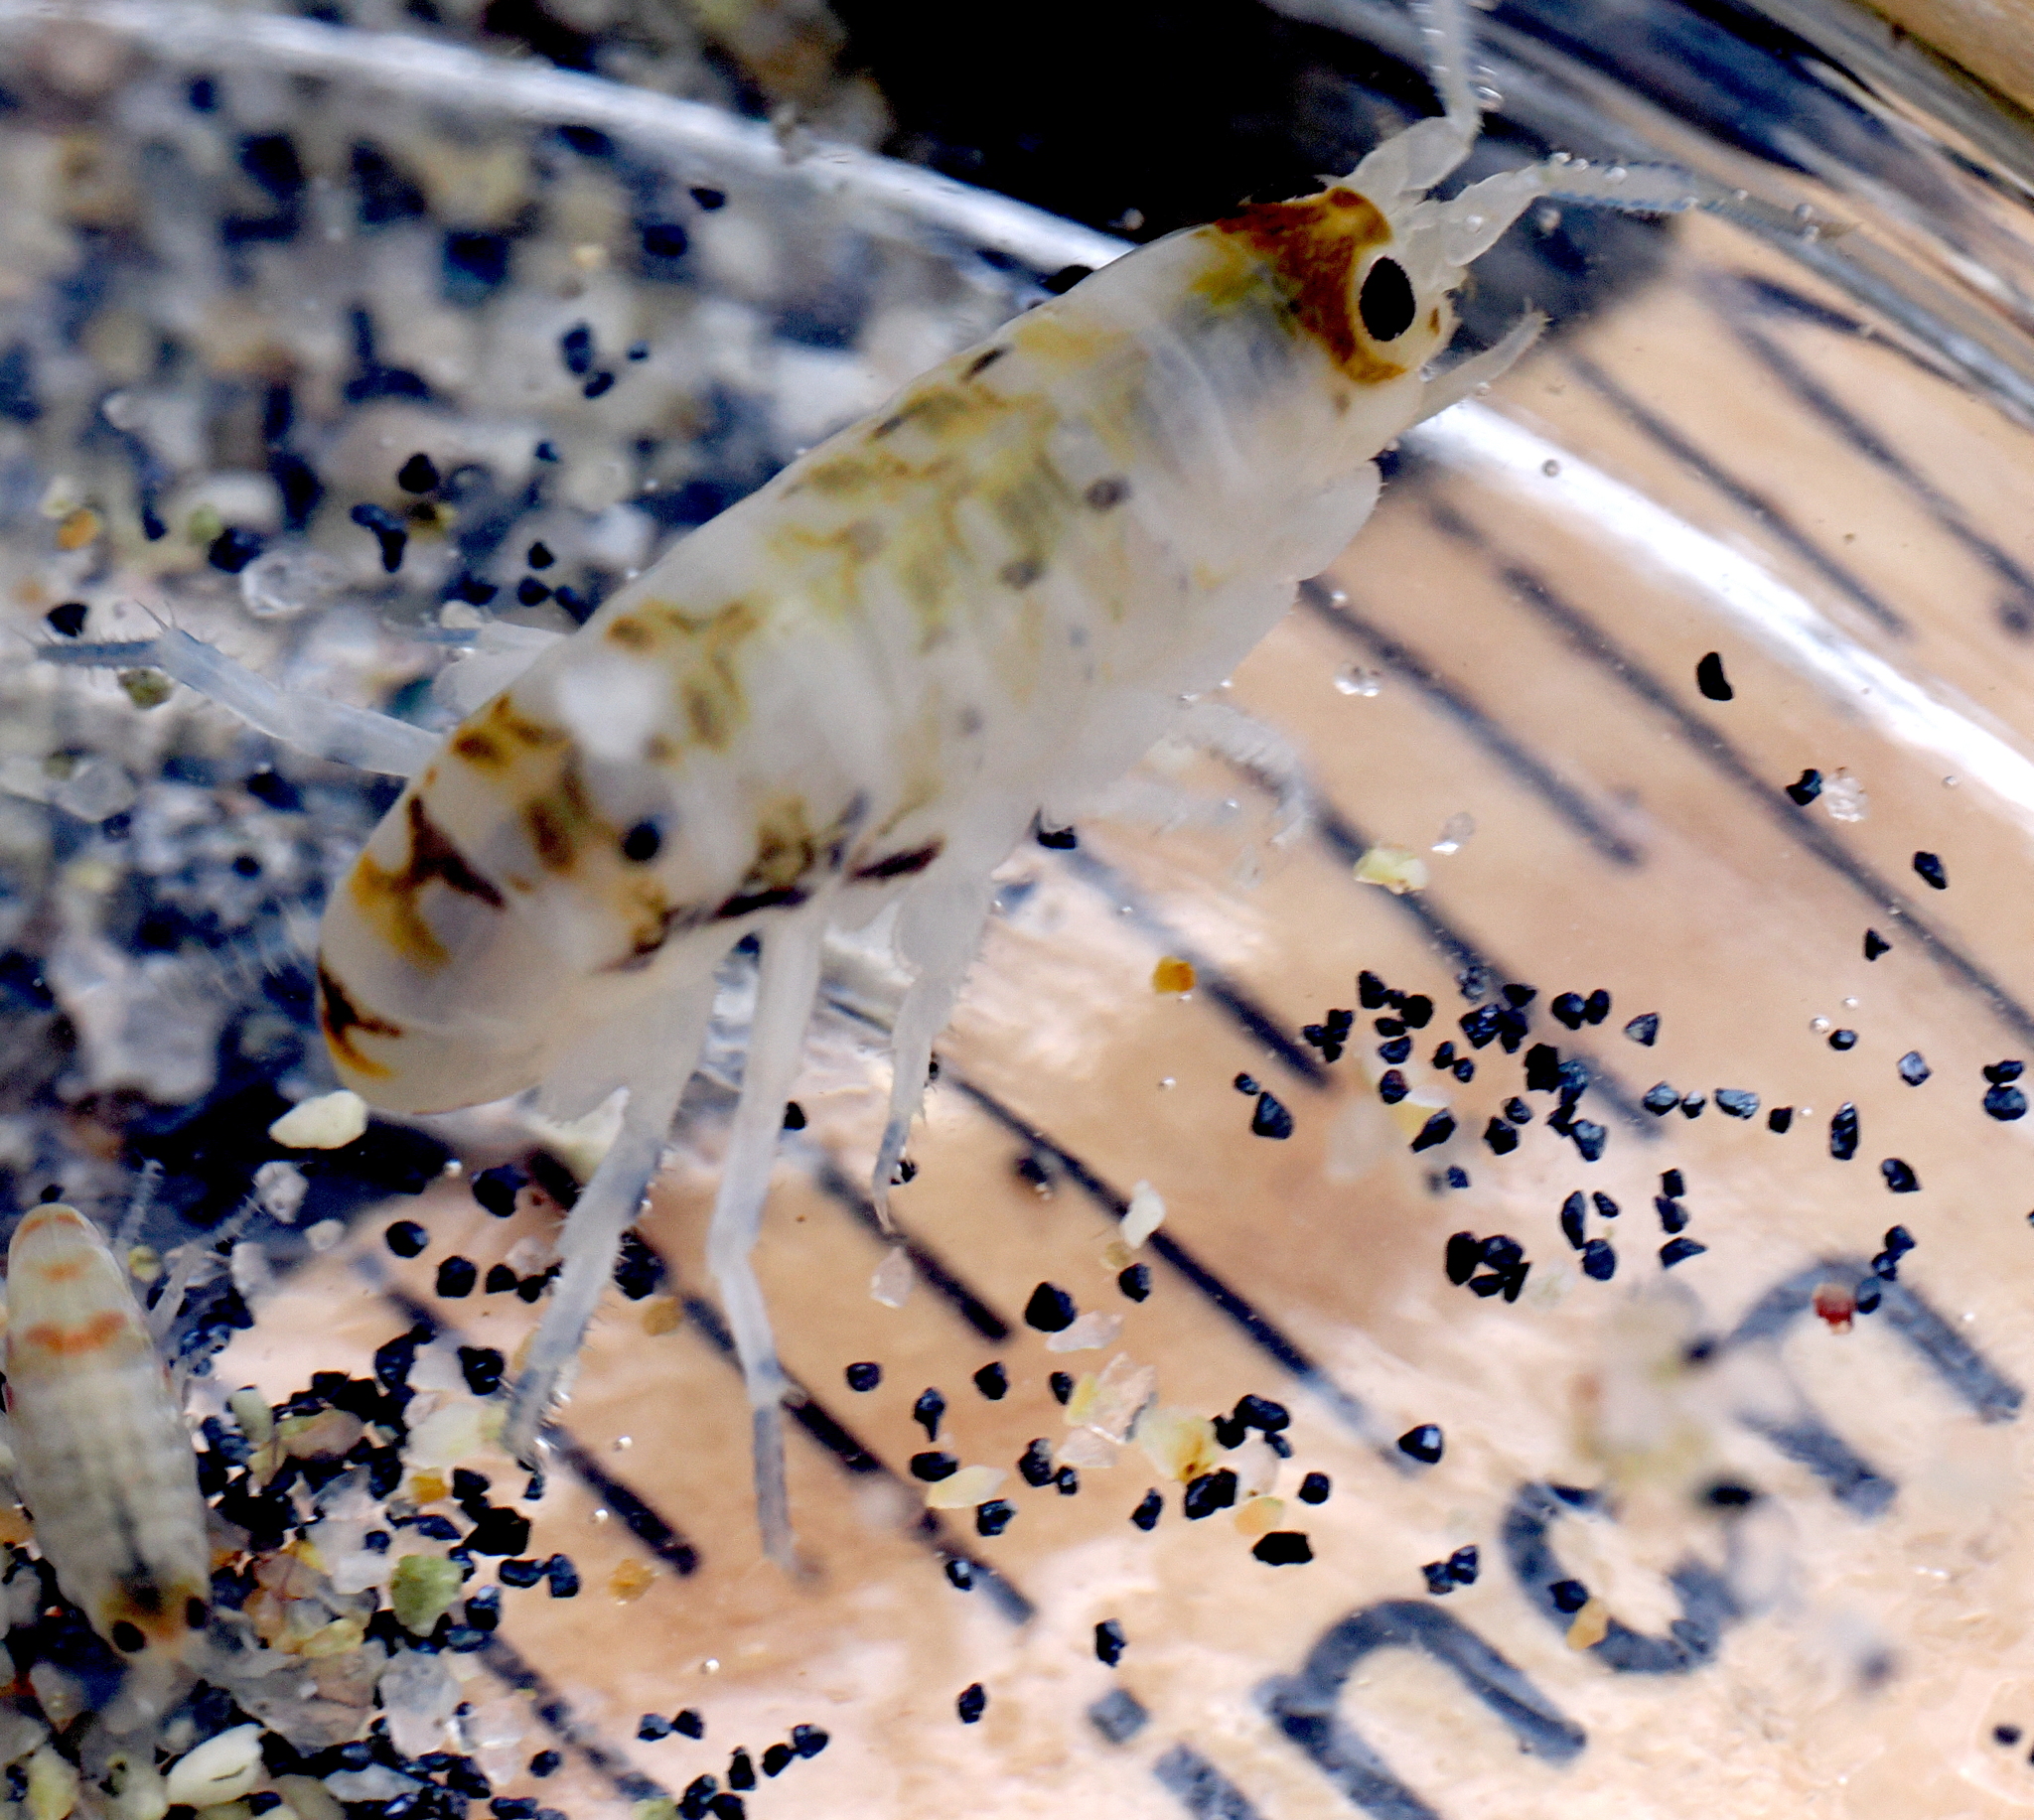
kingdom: Animalia
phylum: Arthropoda
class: Malacostraca
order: Amphipoda
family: Talitridae
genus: Megalorchestia
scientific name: Megalorchestia pugettensis
